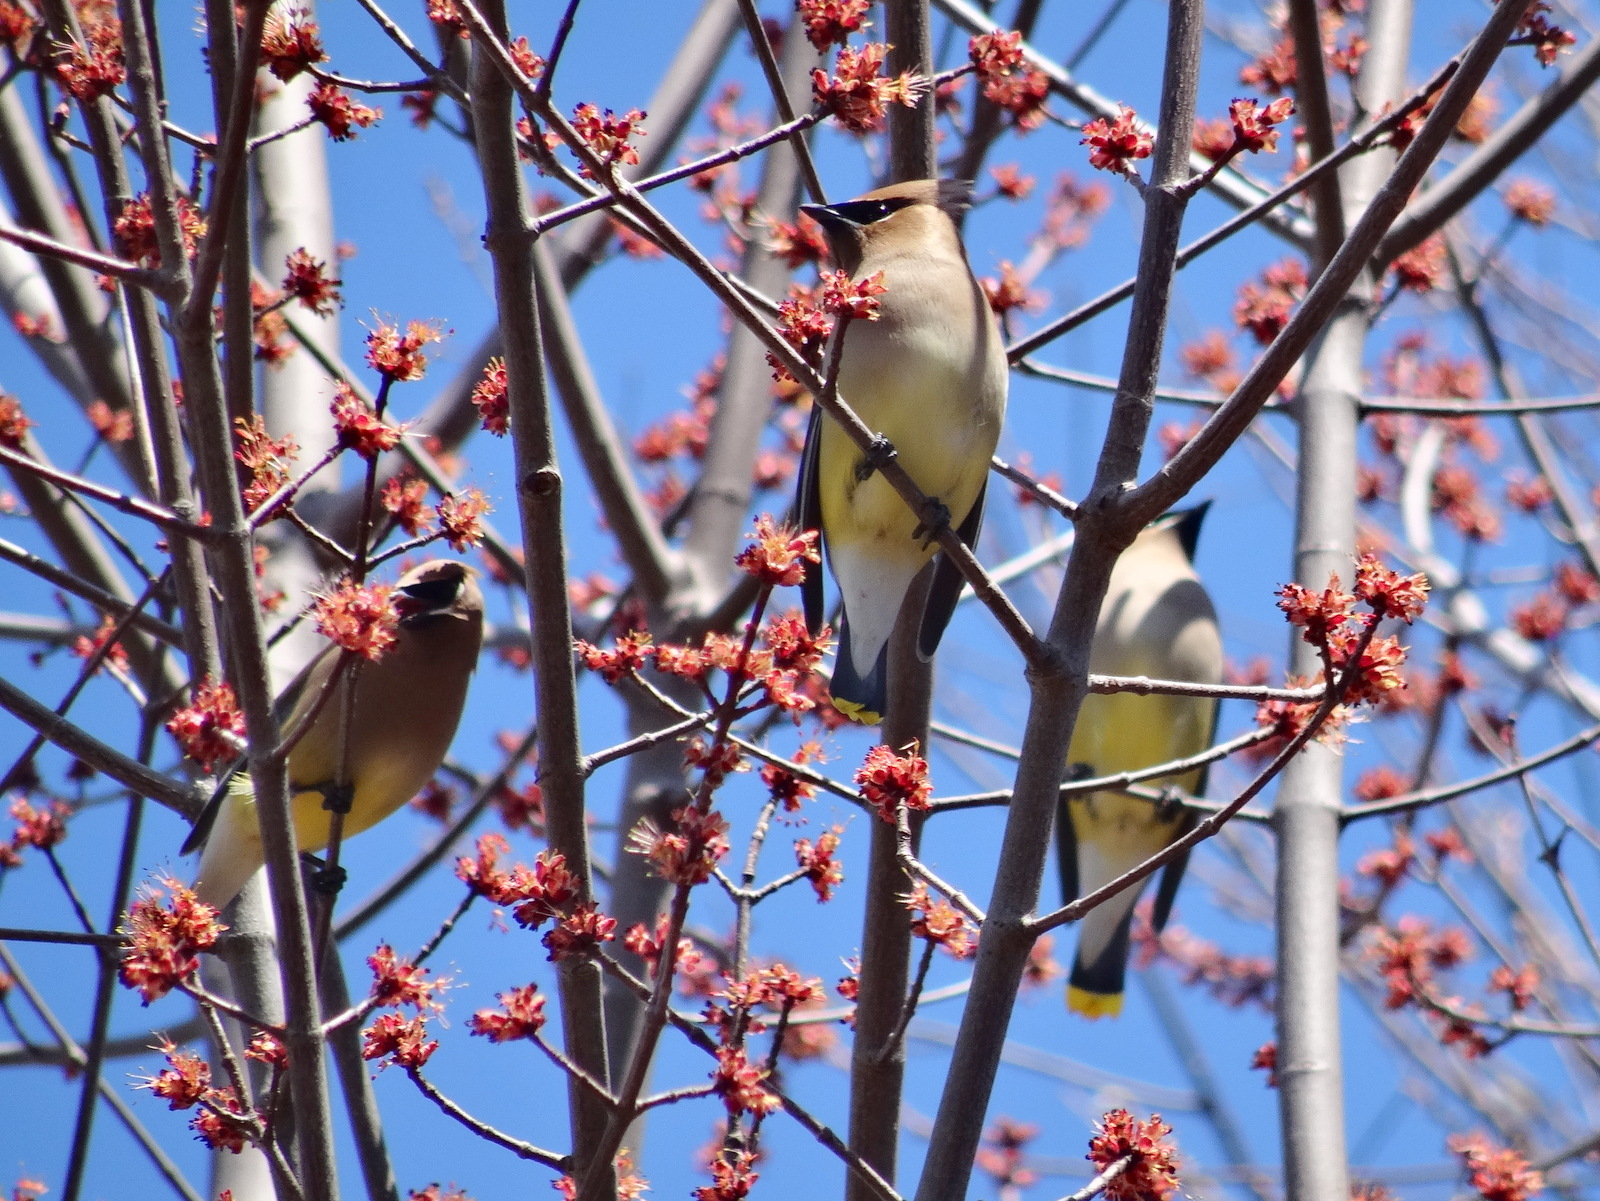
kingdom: Animalia
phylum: Chordata
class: Aves
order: Passeriformes
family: Bombycillidae
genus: Bombycilla
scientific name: Bombycilla cedrorum
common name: Cedar waxwing
